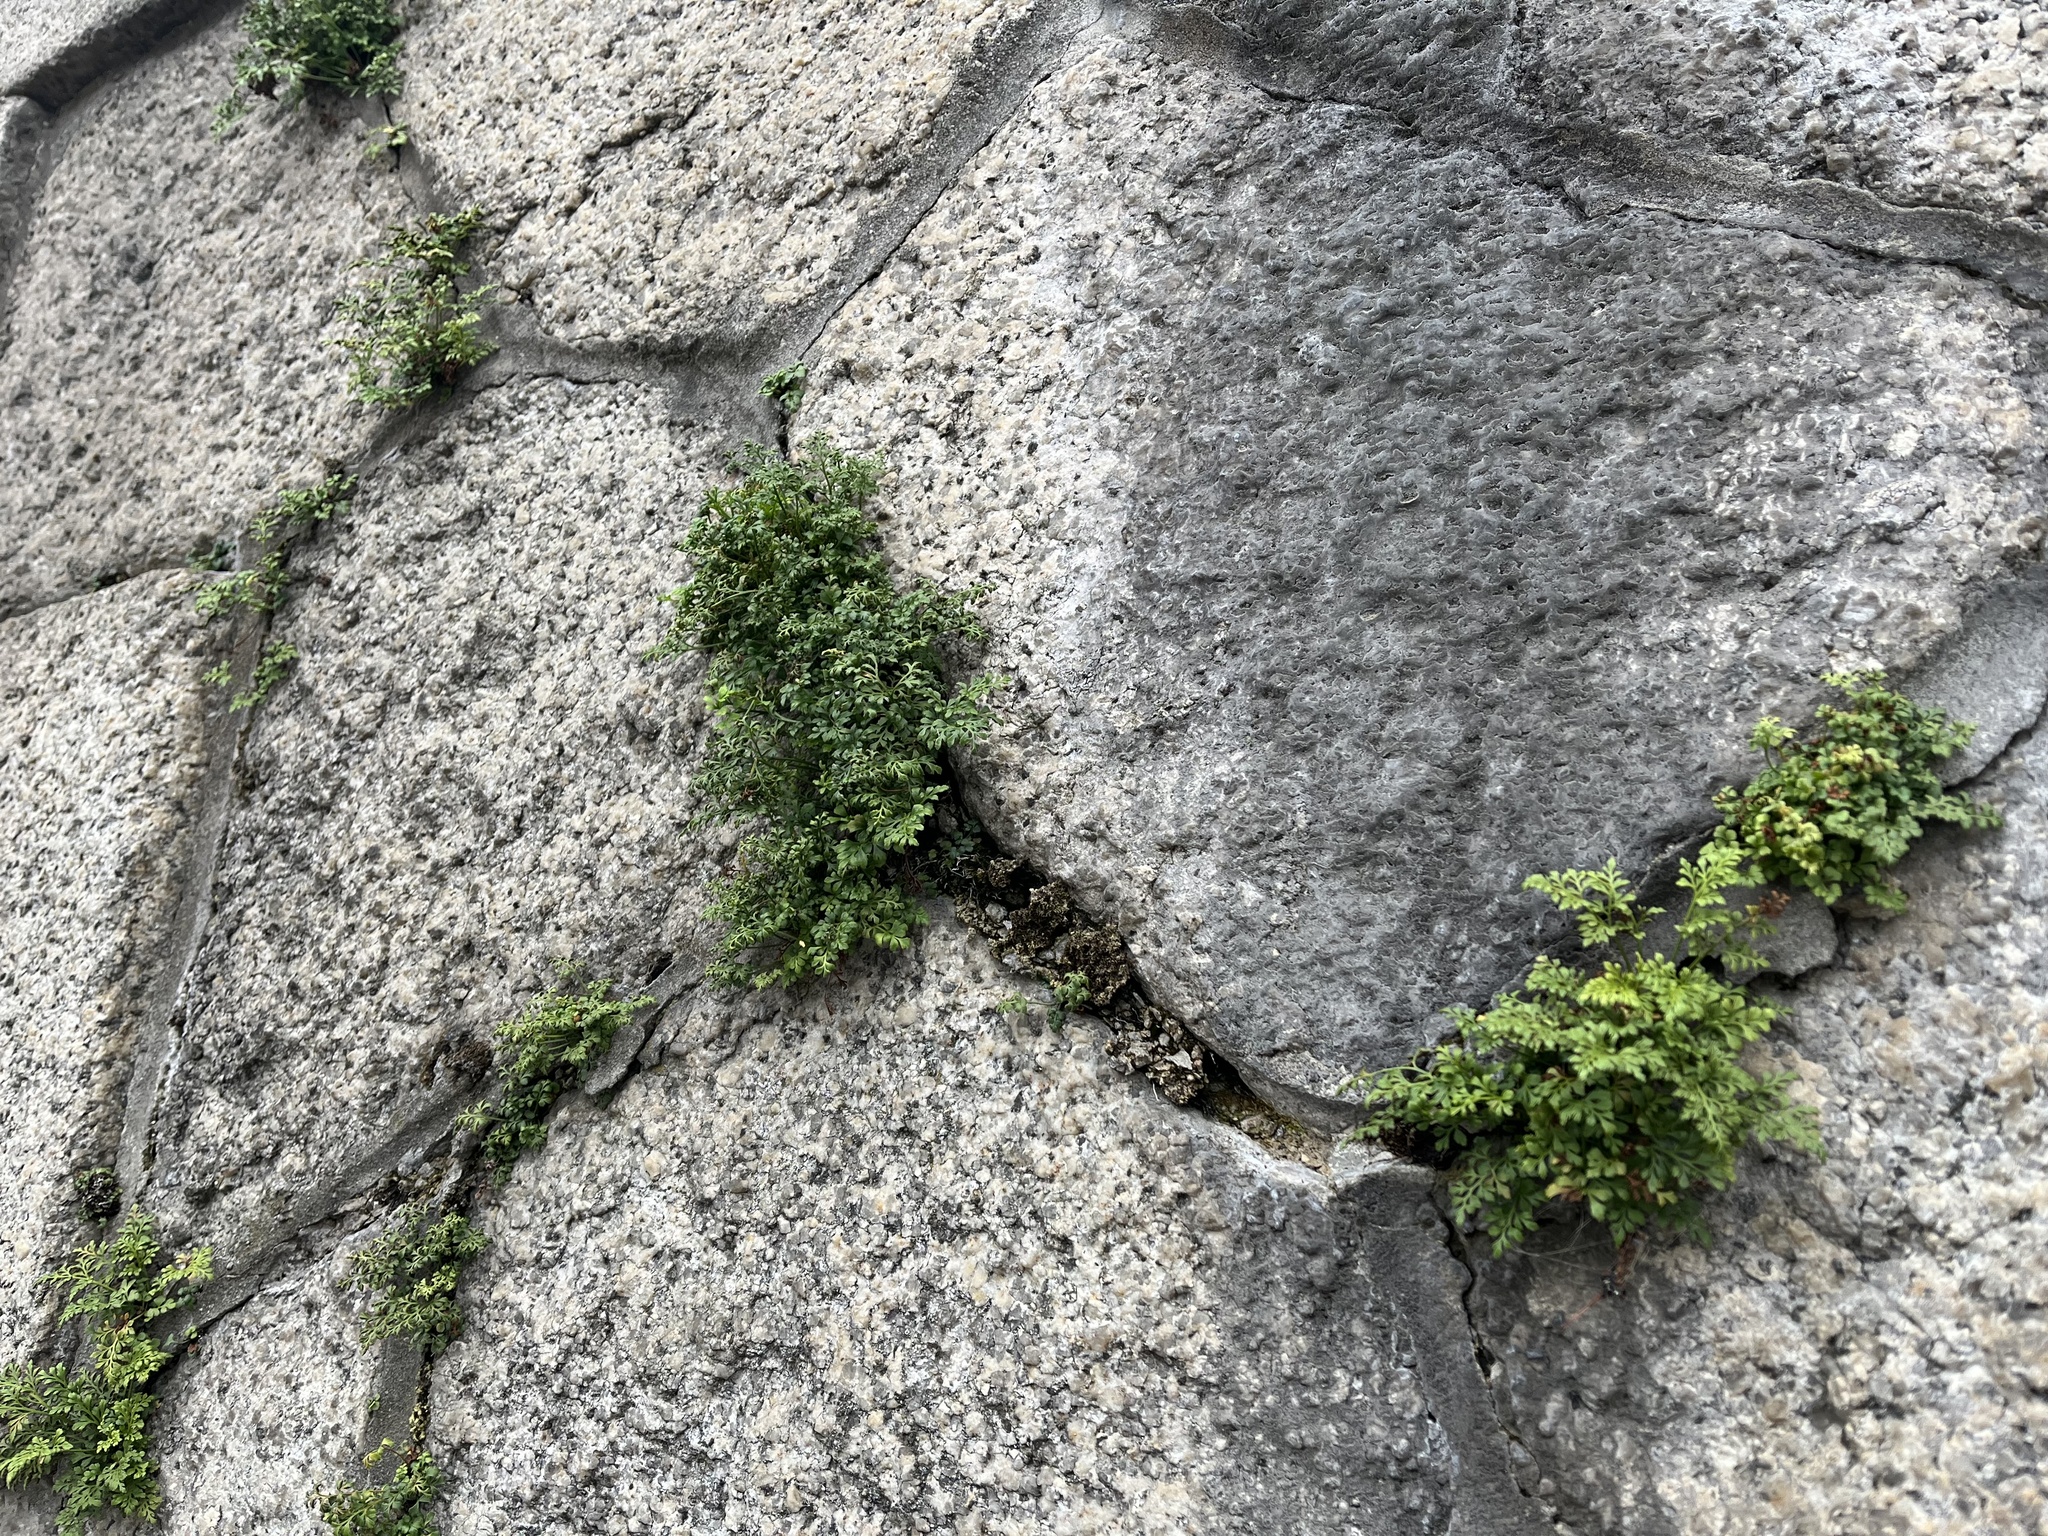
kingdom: Plantae
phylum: Tracheophyta
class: Polypodiopsida
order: Polypodiales
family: Aspleniaceae
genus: Asplenium
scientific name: Asplenium ruta-muraria
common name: Wall-rue
